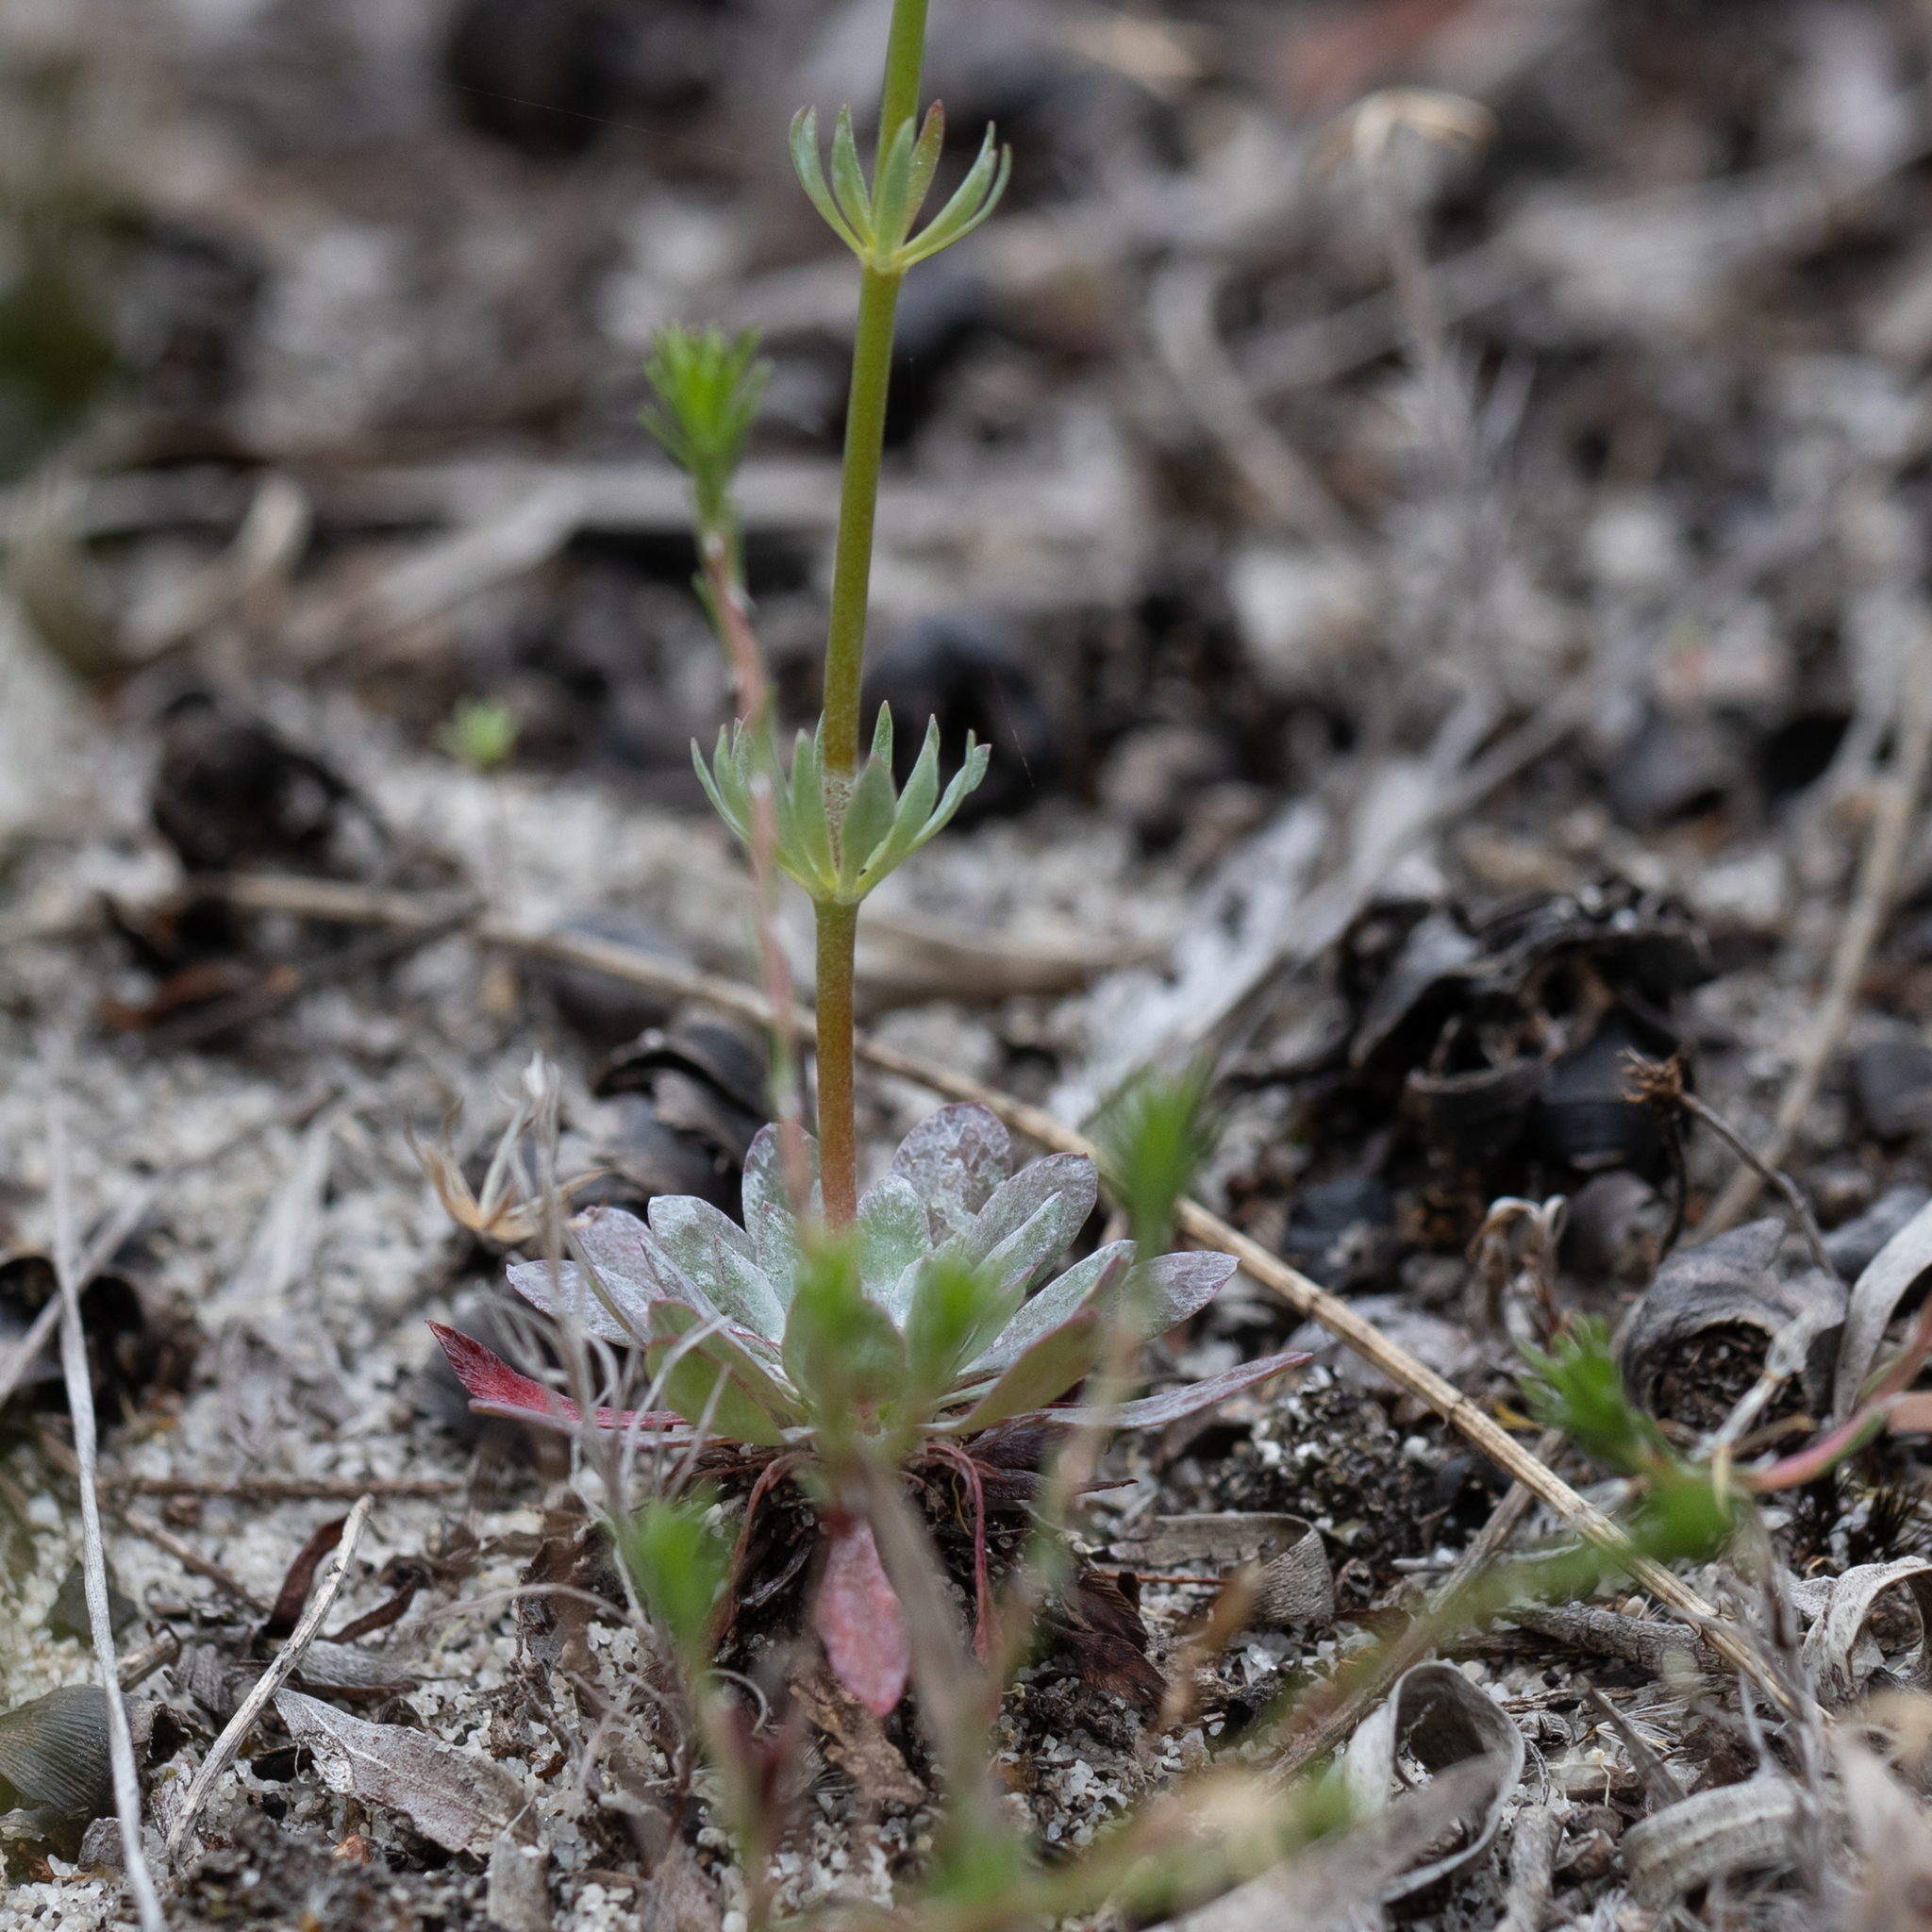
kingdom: Plantae
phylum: Tracheophyta
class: Magnoliopsida
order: Asterales
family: Stylidiaceae
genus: Stylidium
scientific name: Stylidium neurophyllum
